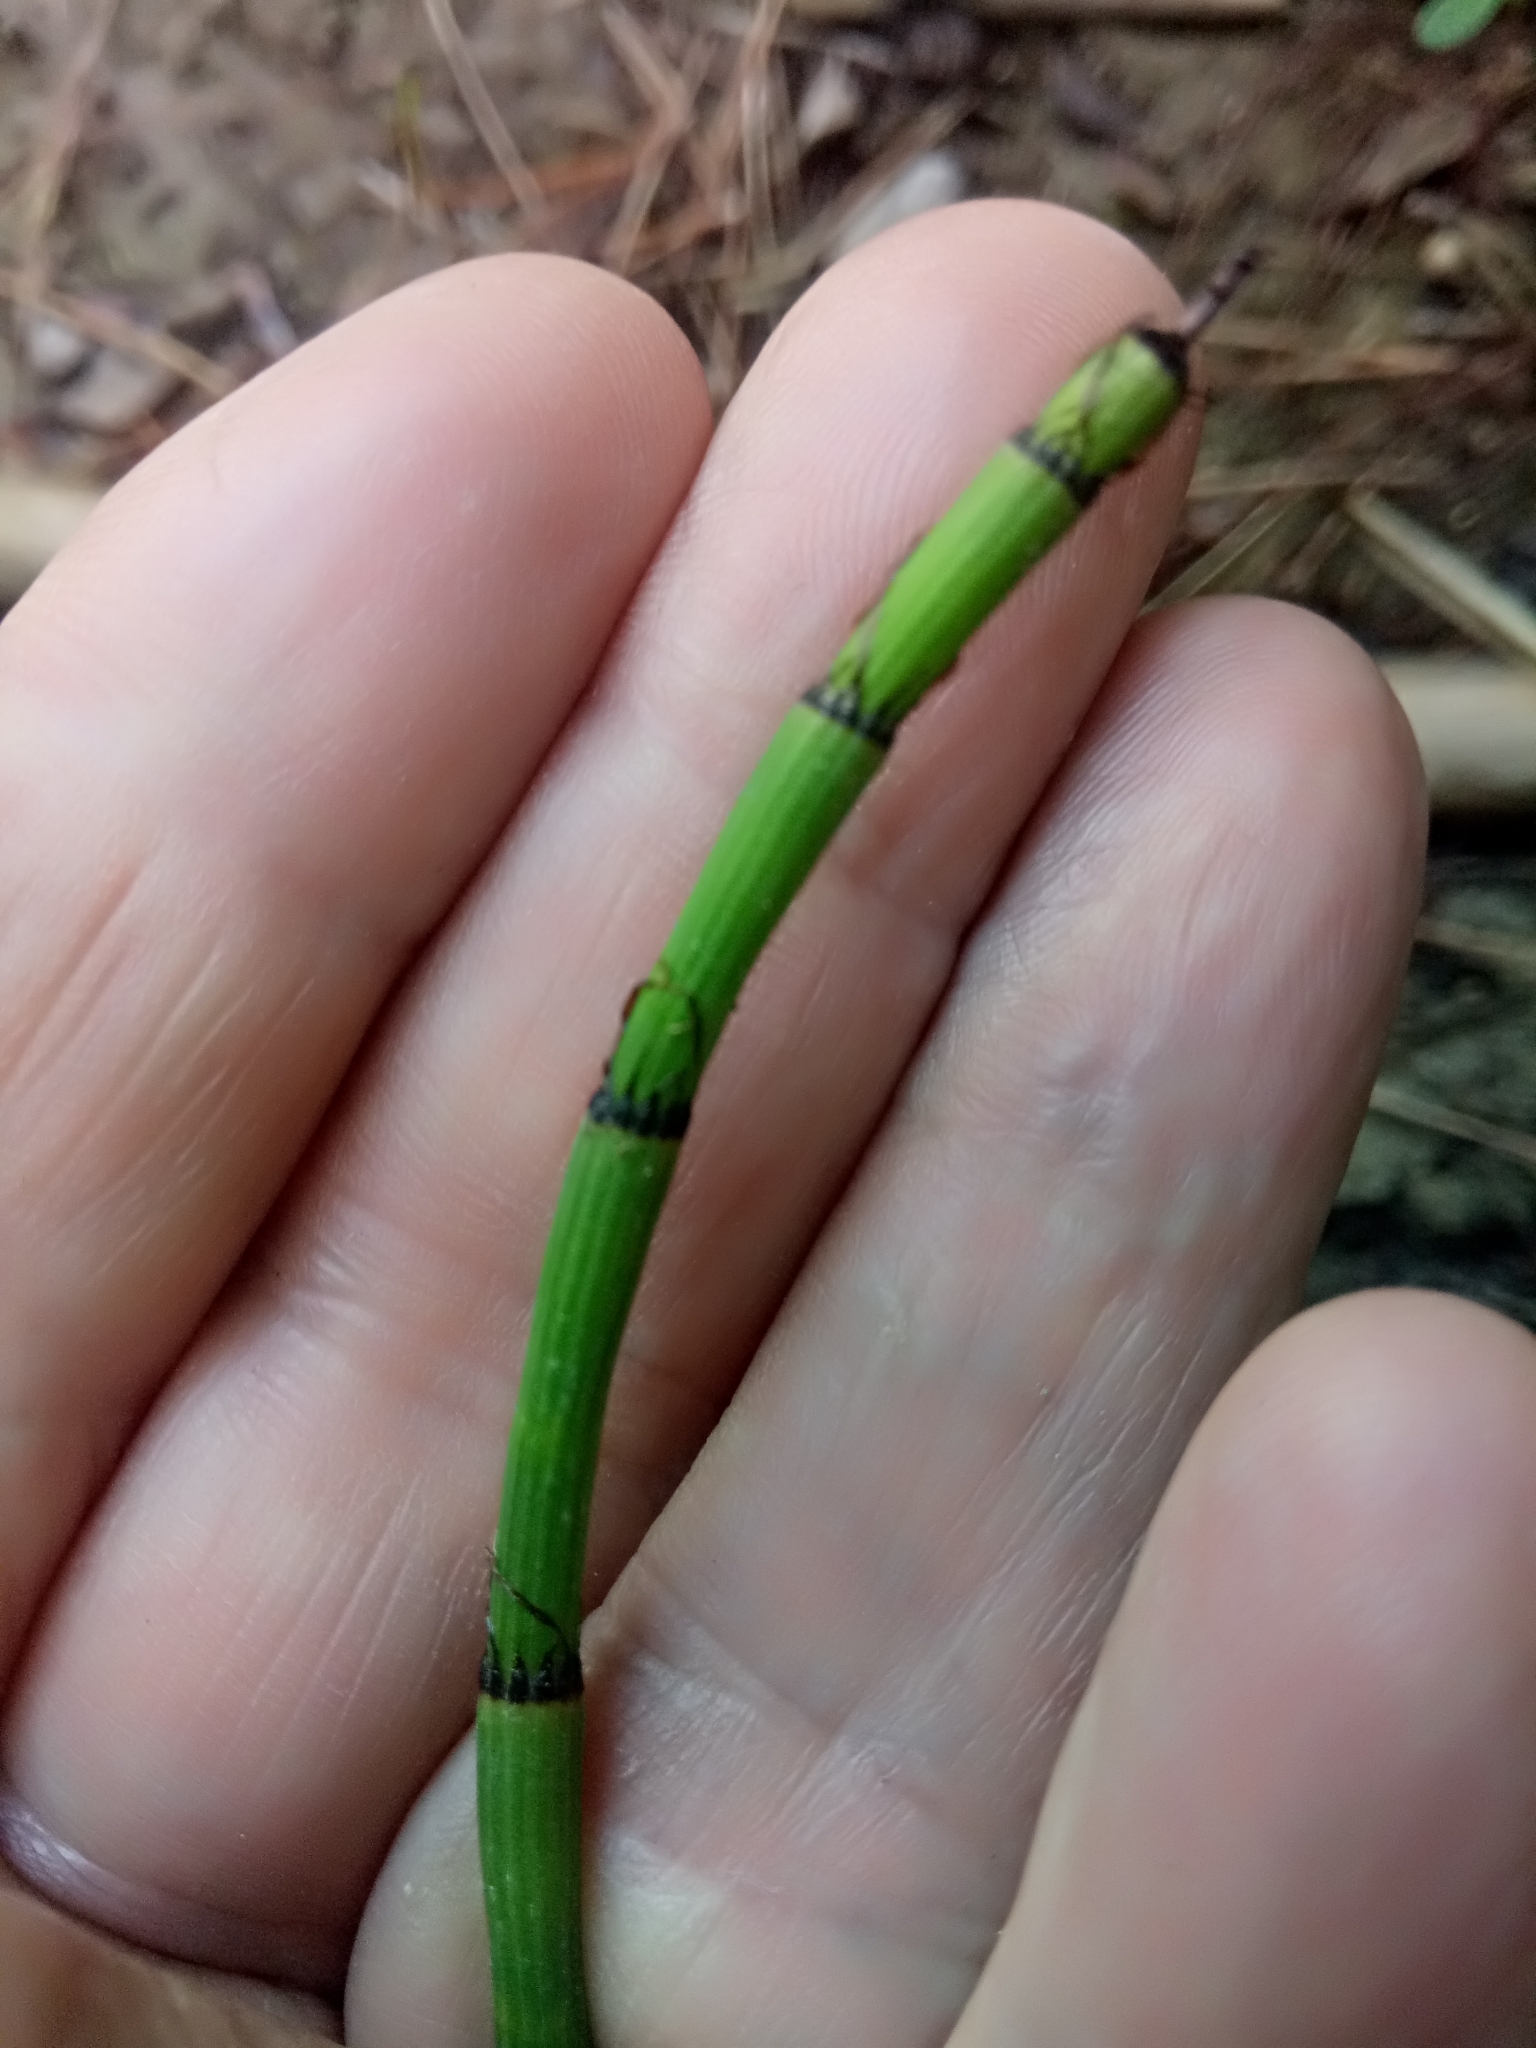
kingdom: Plantae
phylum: Tracheophyta
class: Polypodiopsida
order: Equisetales
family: Equisetaceae
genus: Equisetum
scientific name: Equisetum ramosissimum
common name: Branched horsetail
